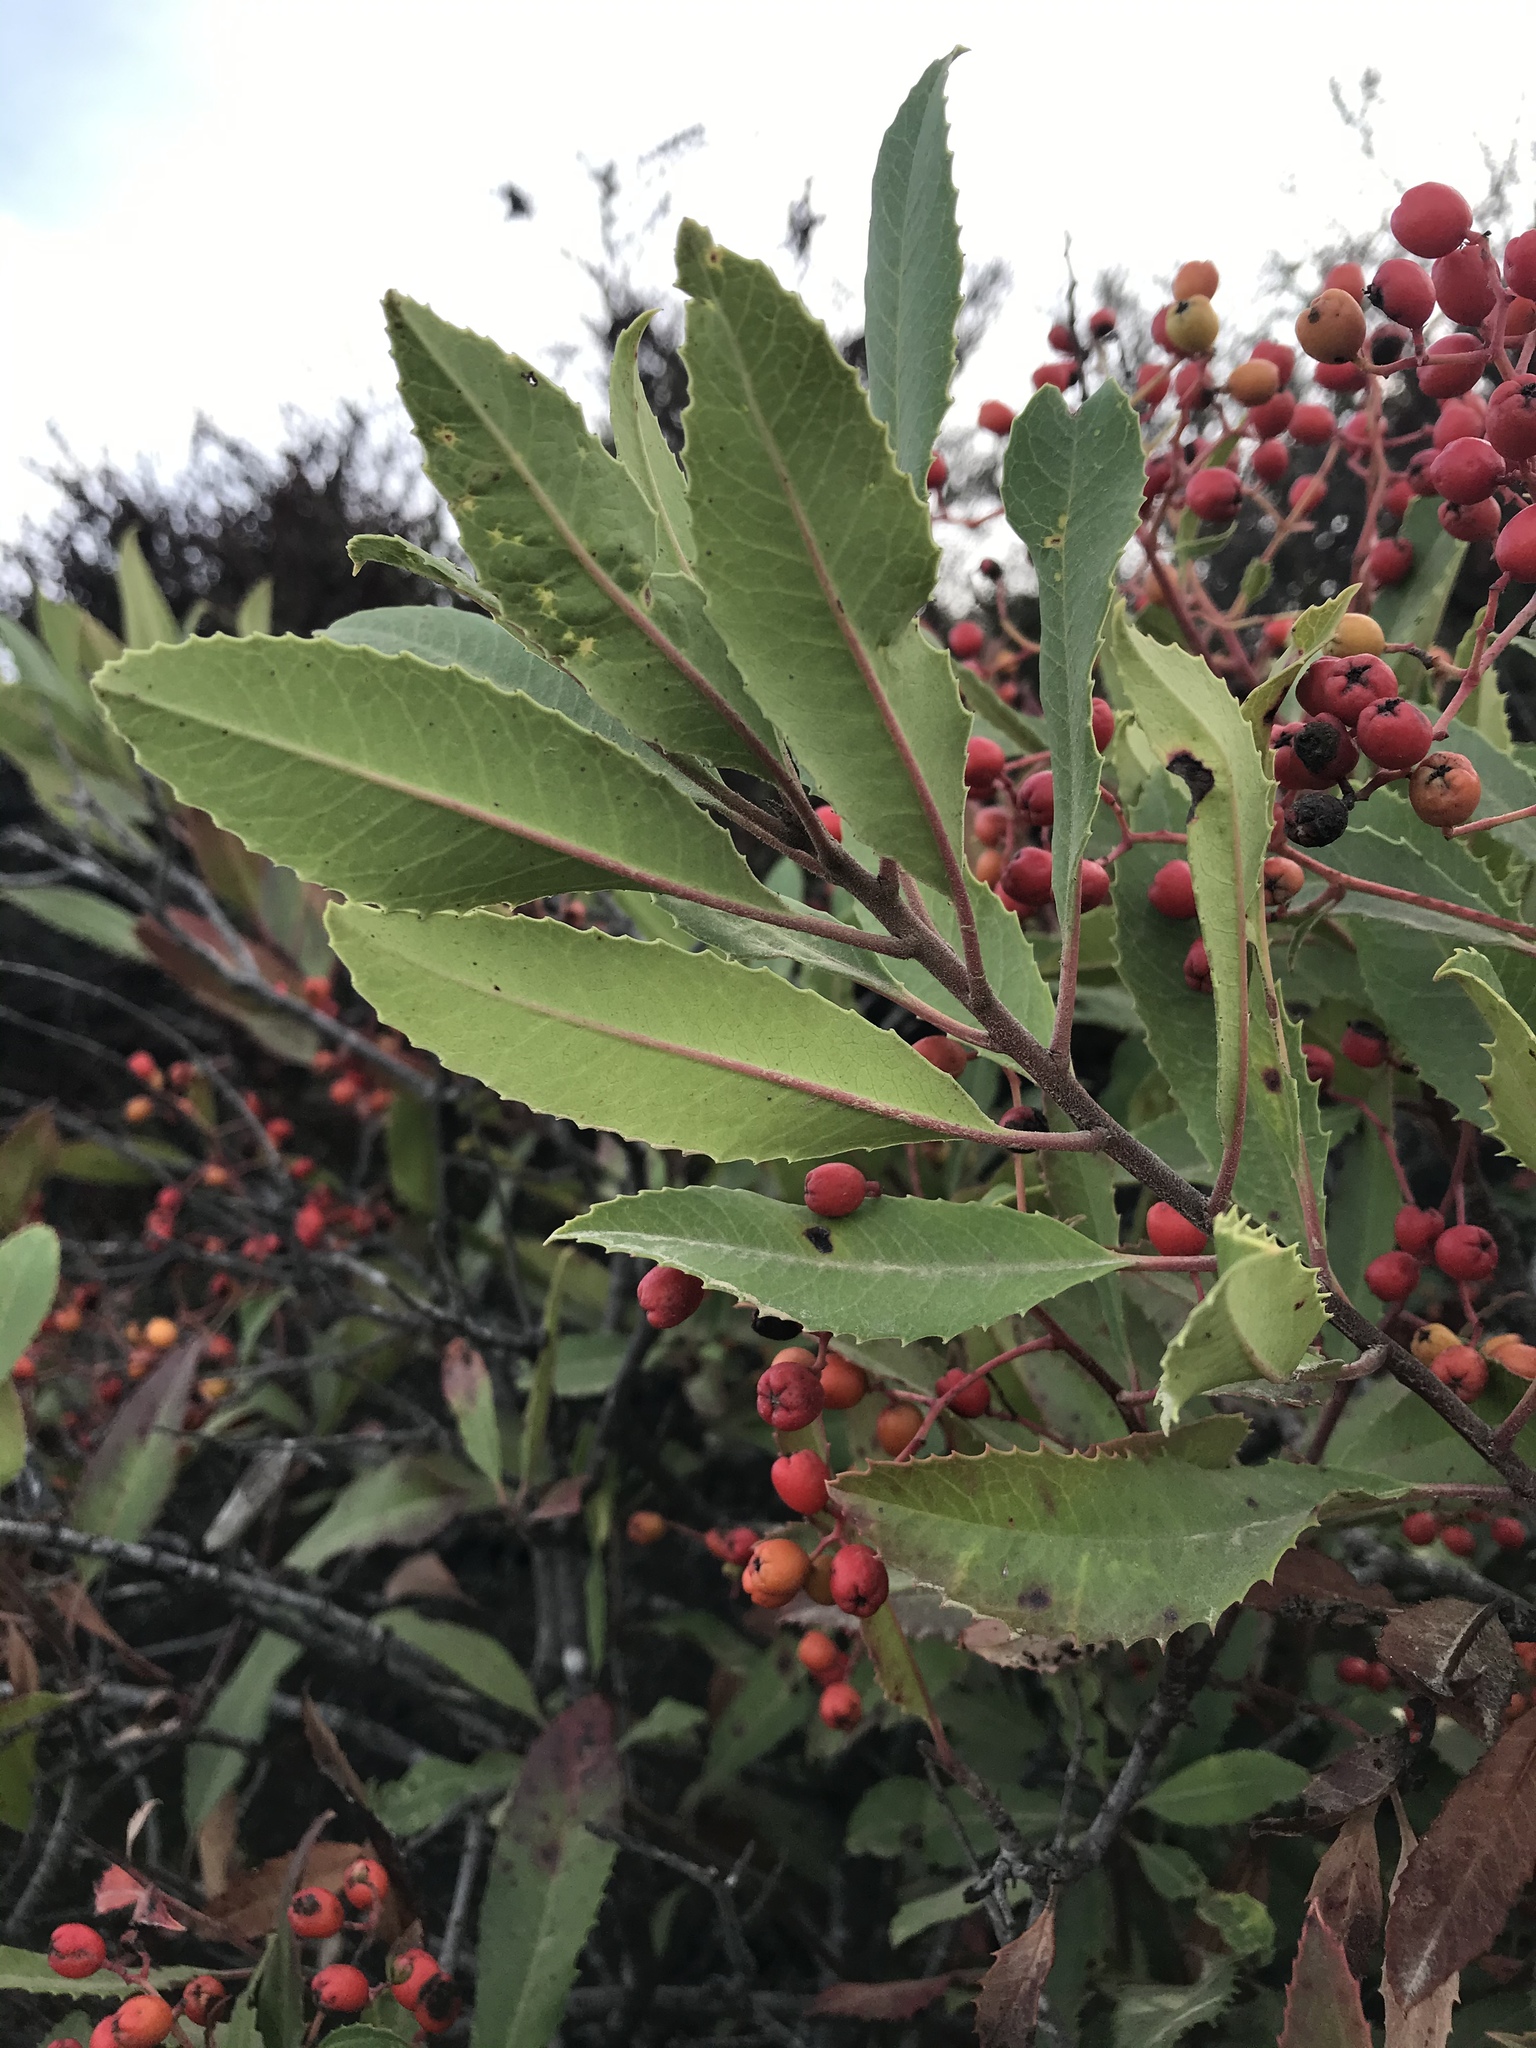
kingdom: Plantae
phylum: Tracheophyta
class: Magnoliopsida
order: Rosales
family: Rosaceae
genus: Heteromeles
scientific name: Heteromeles arbutifolia
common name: California-holly
